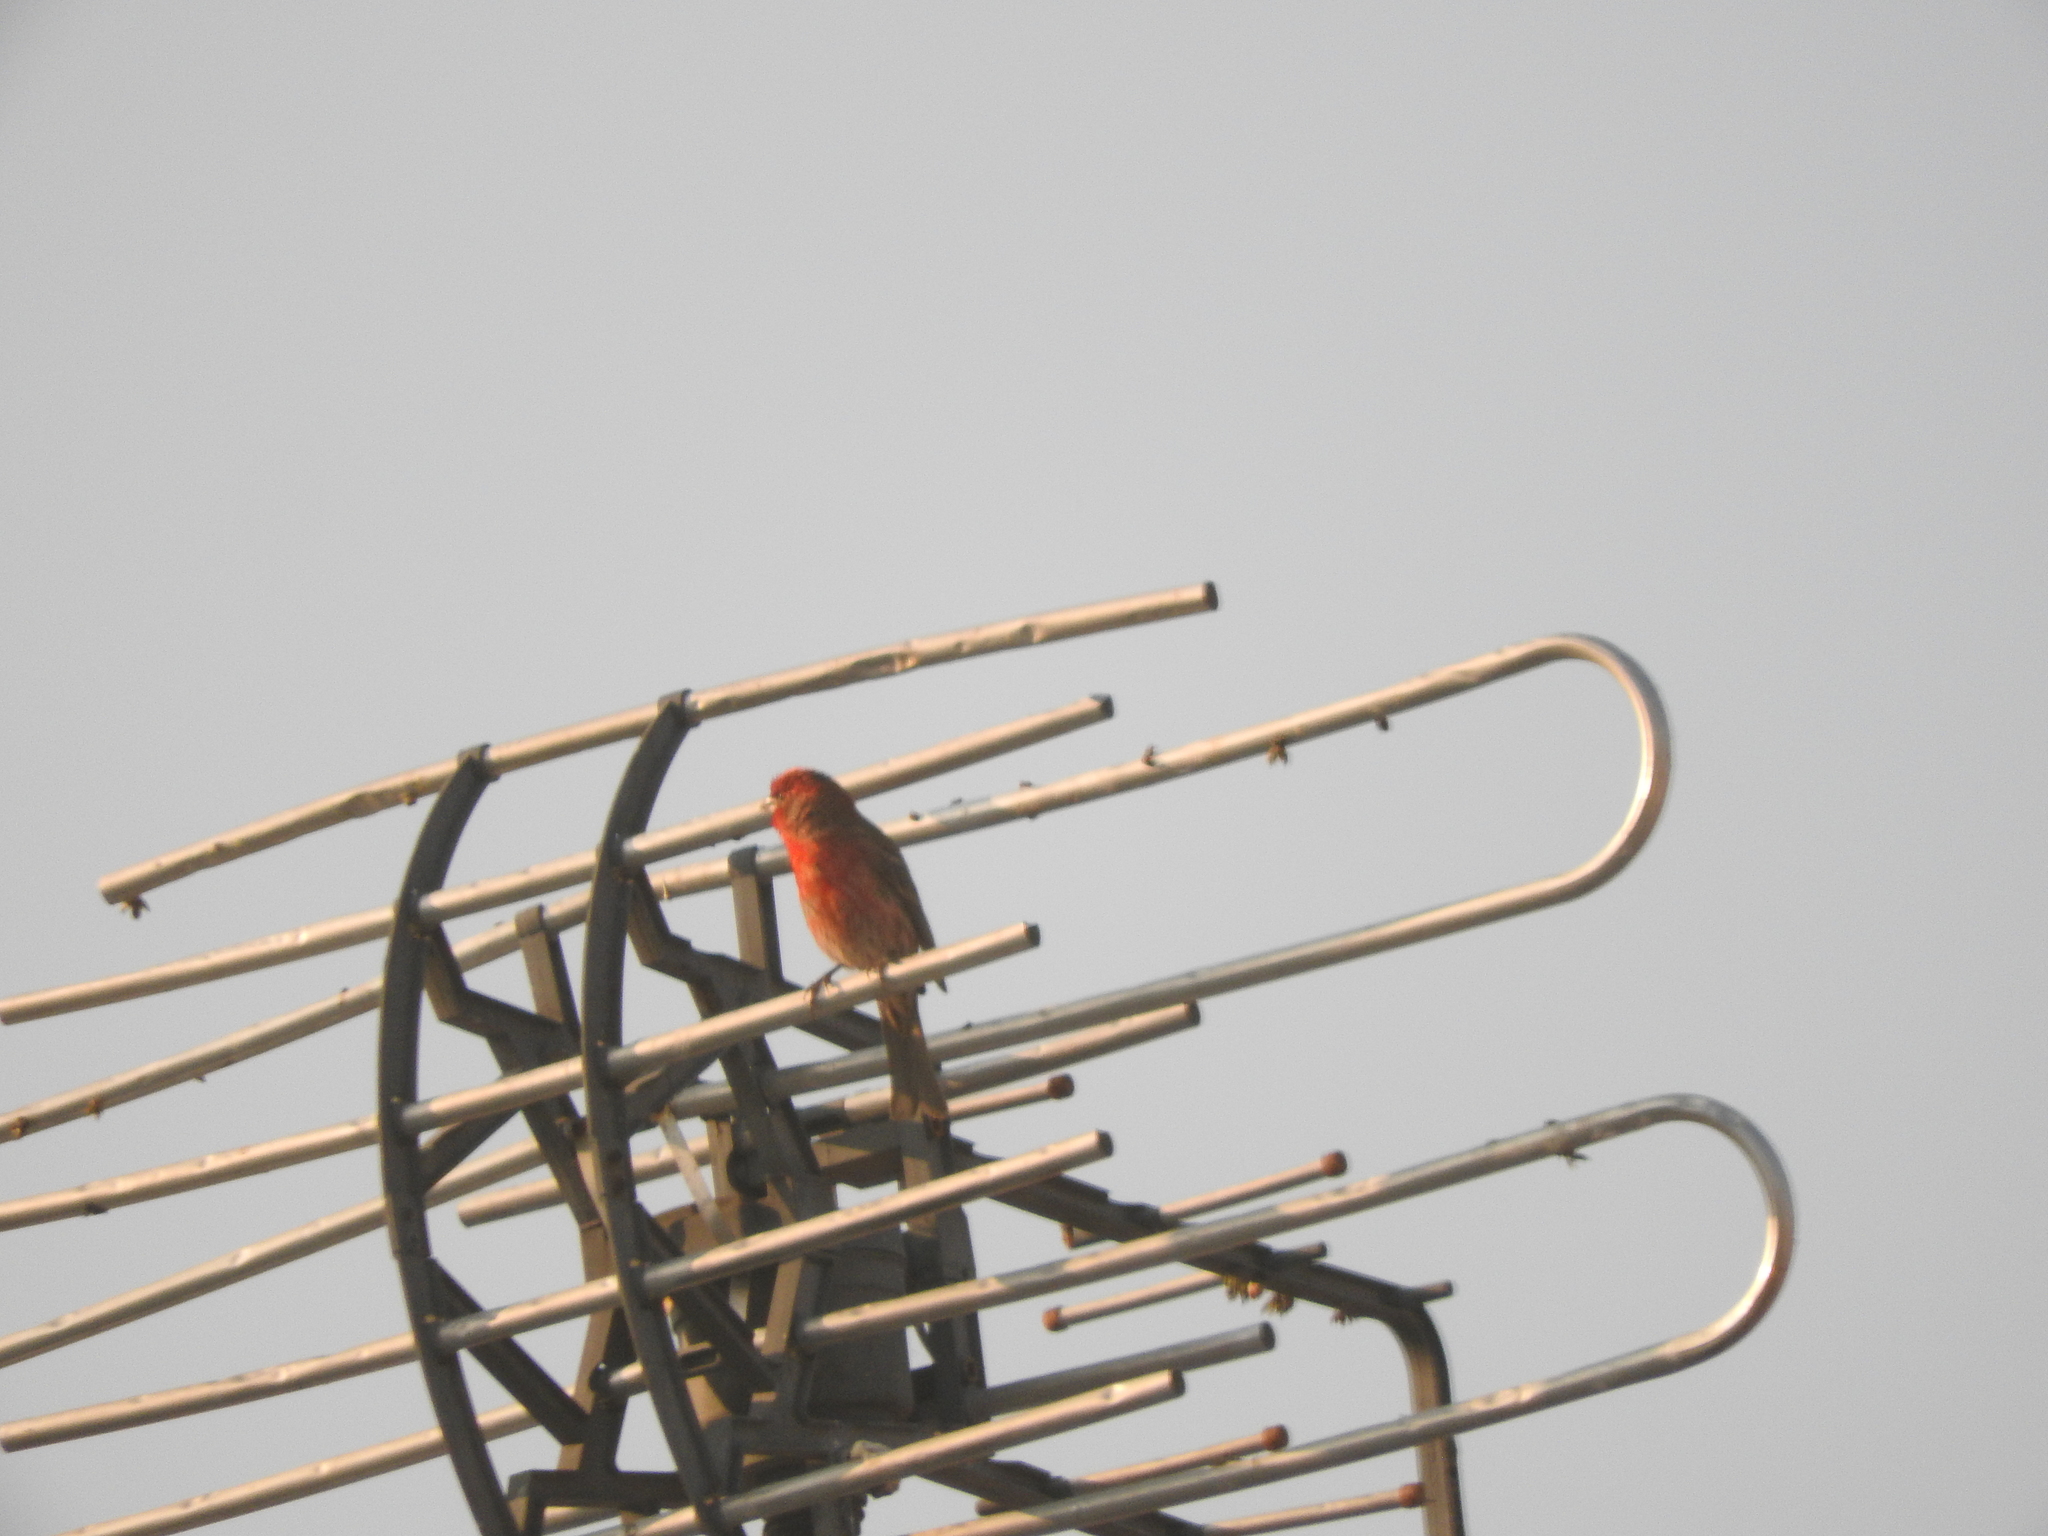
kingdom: Animalia
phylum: Chordata
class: Aves
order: Passeriformes
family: Fringillidae
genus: Haemorhous
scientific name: Haemorhous mexicanus
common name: House finch
